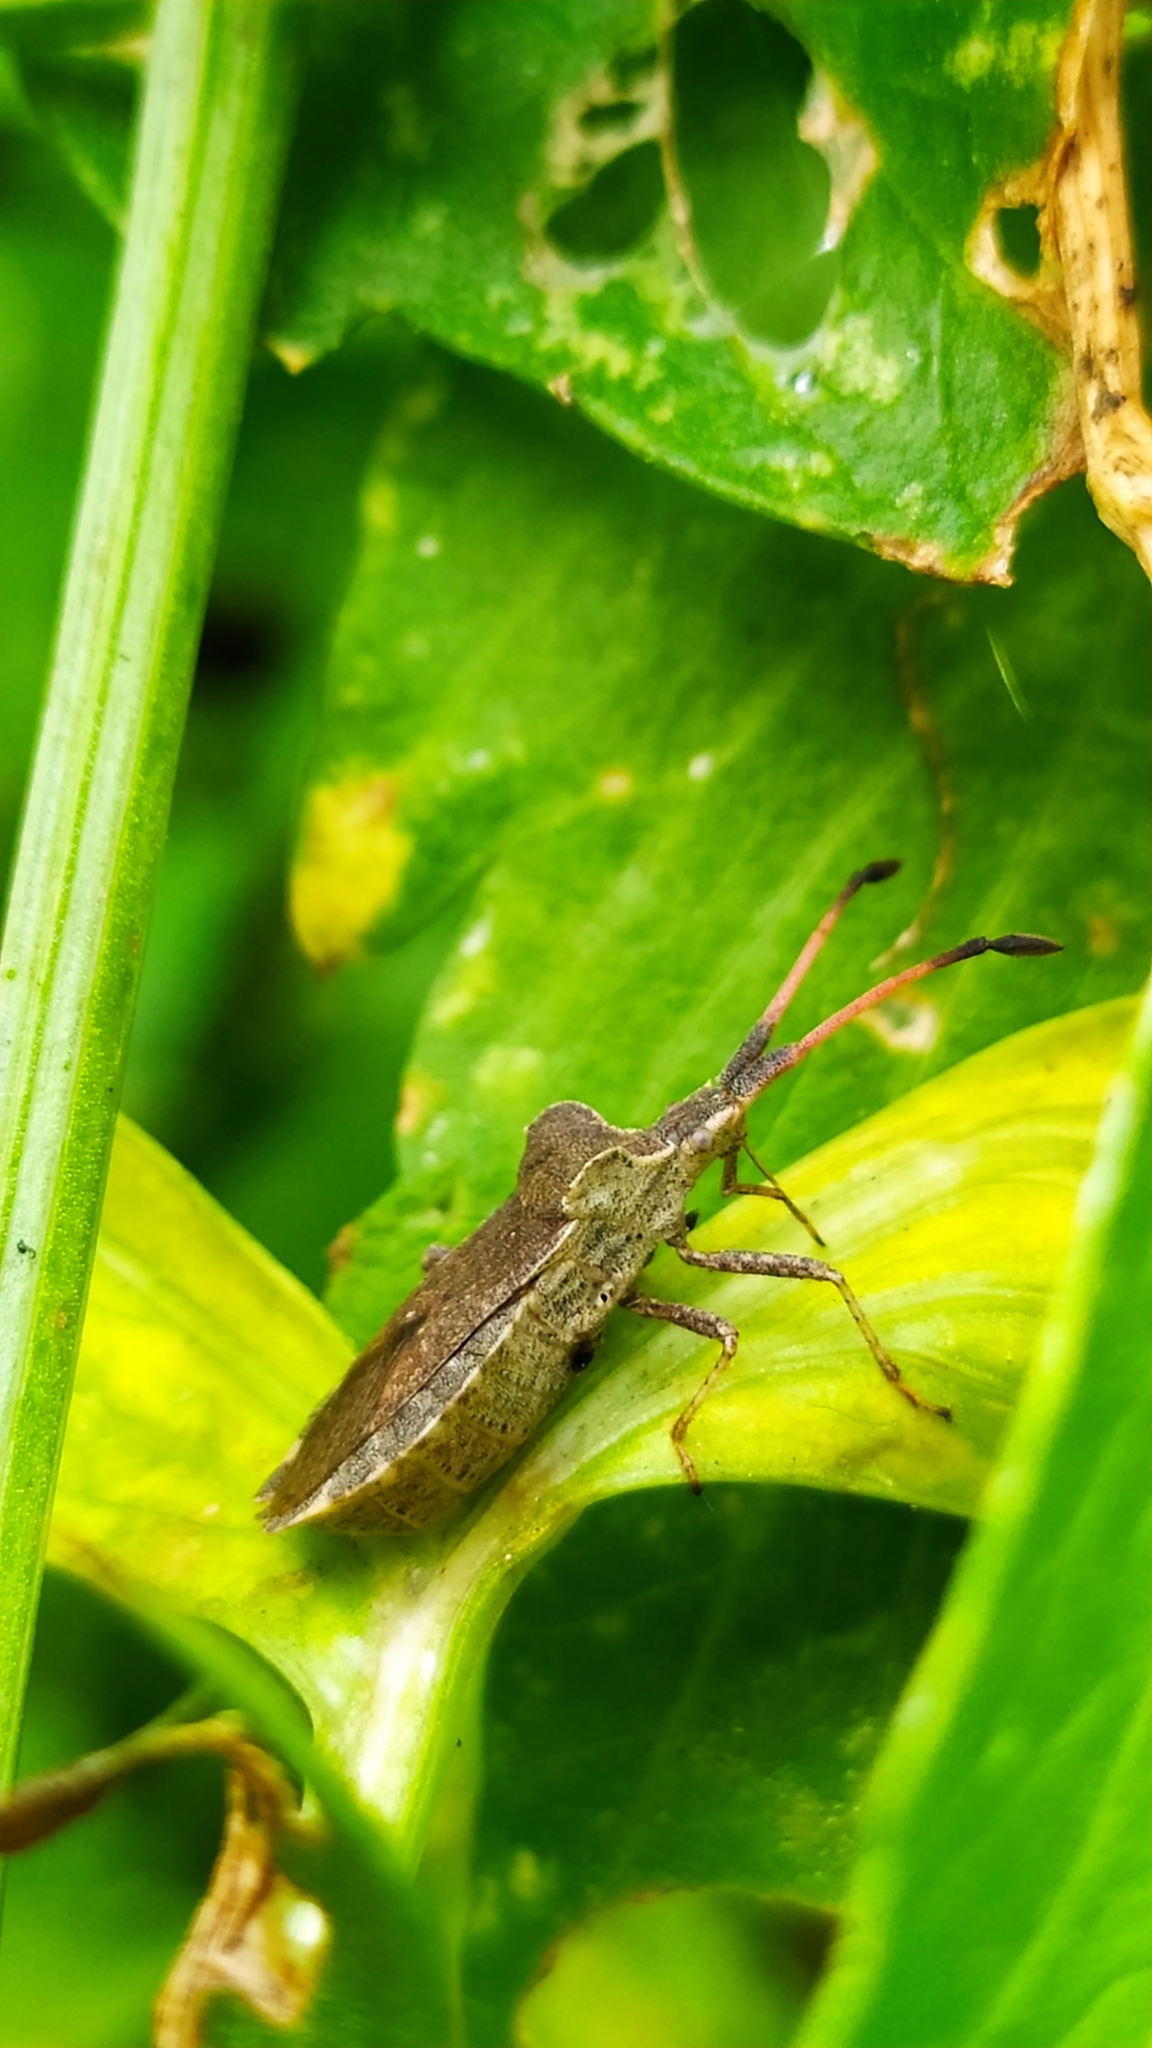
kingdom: Animalia
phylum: Arthropoda
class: Insecta
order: Hemiptera
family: Coreidae
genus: Enoplops
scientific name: Enoplops scapha
